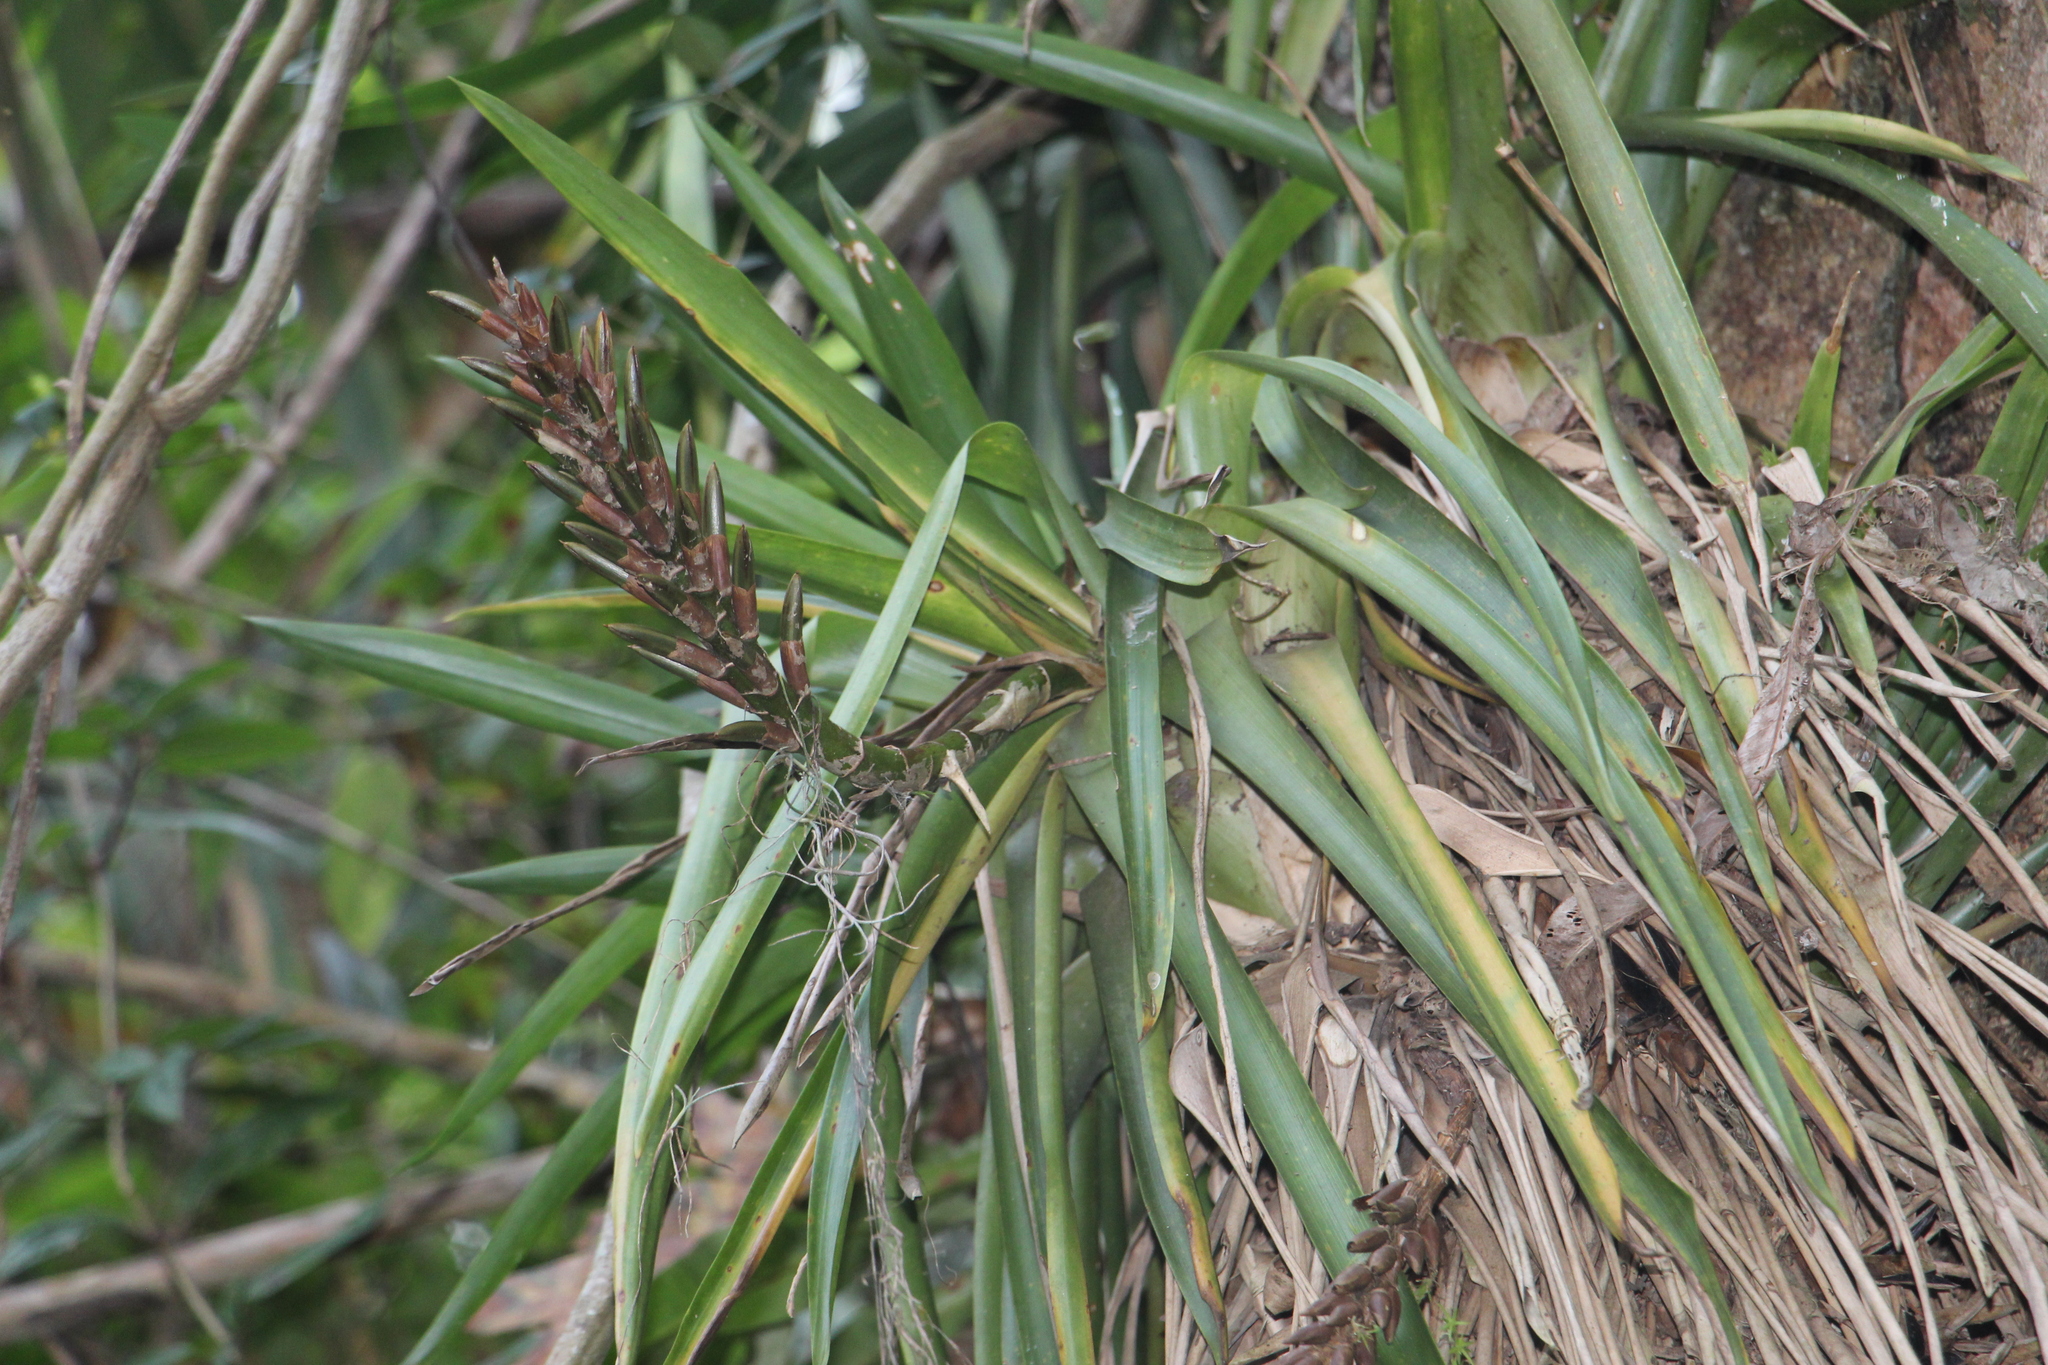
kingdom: Plantae
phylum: Tracheophyta
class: Liliopsida
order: Poales
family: Bromeliaceae
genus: Guzmania
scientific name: Guzmania monostachia
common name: West indian tufted airplant
